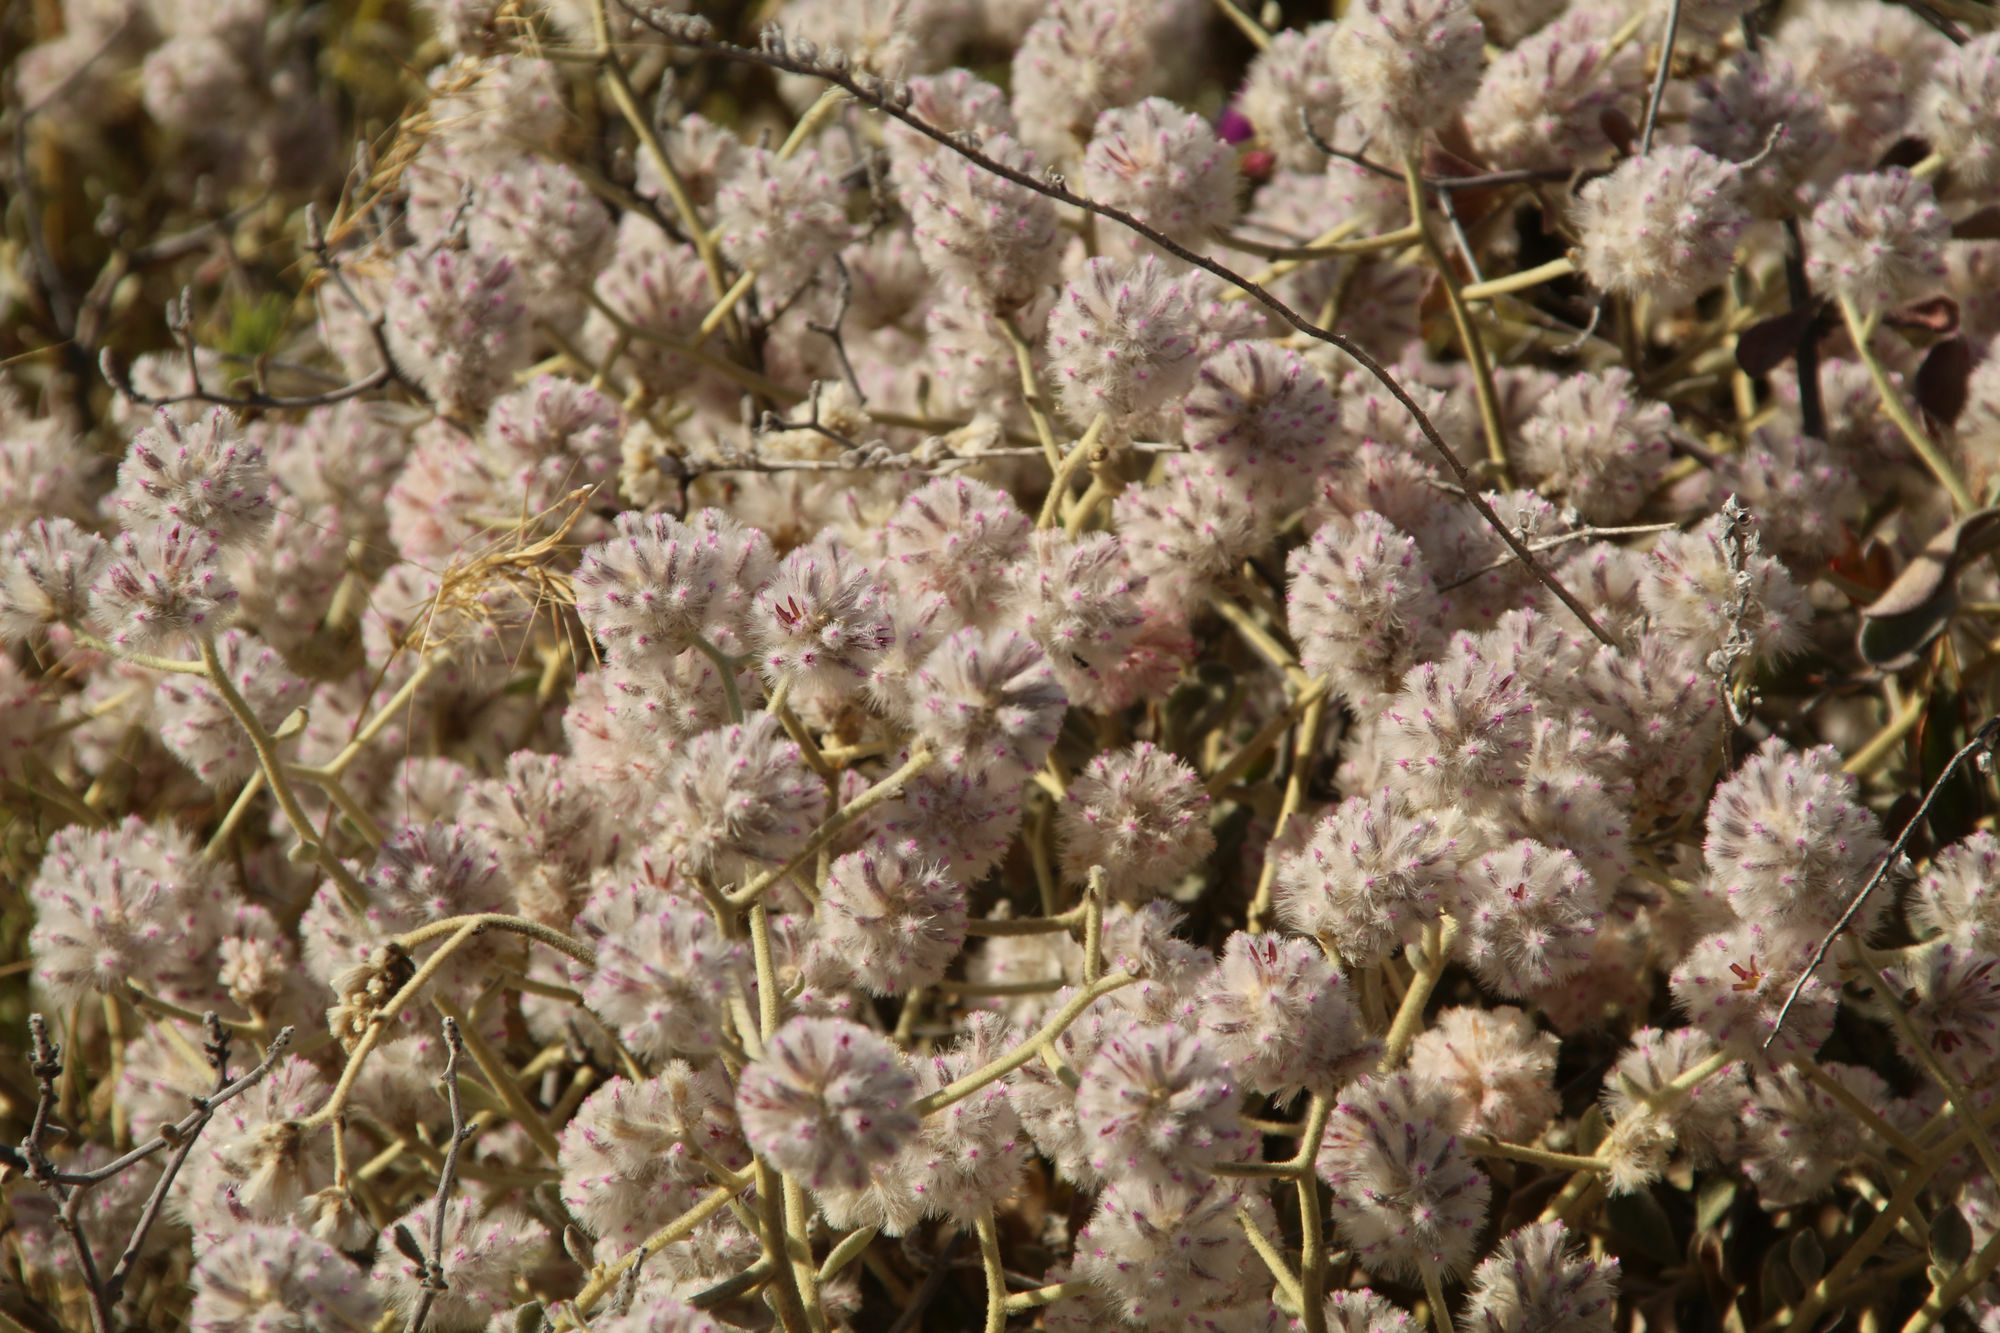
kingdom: Plantae
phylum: Tracheophyta
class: Magnoliopsida
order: Caryophyllales
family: Amaranthaceae
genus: Ptilotus
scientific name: Ptilotus obovatus
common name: Cottonbush
